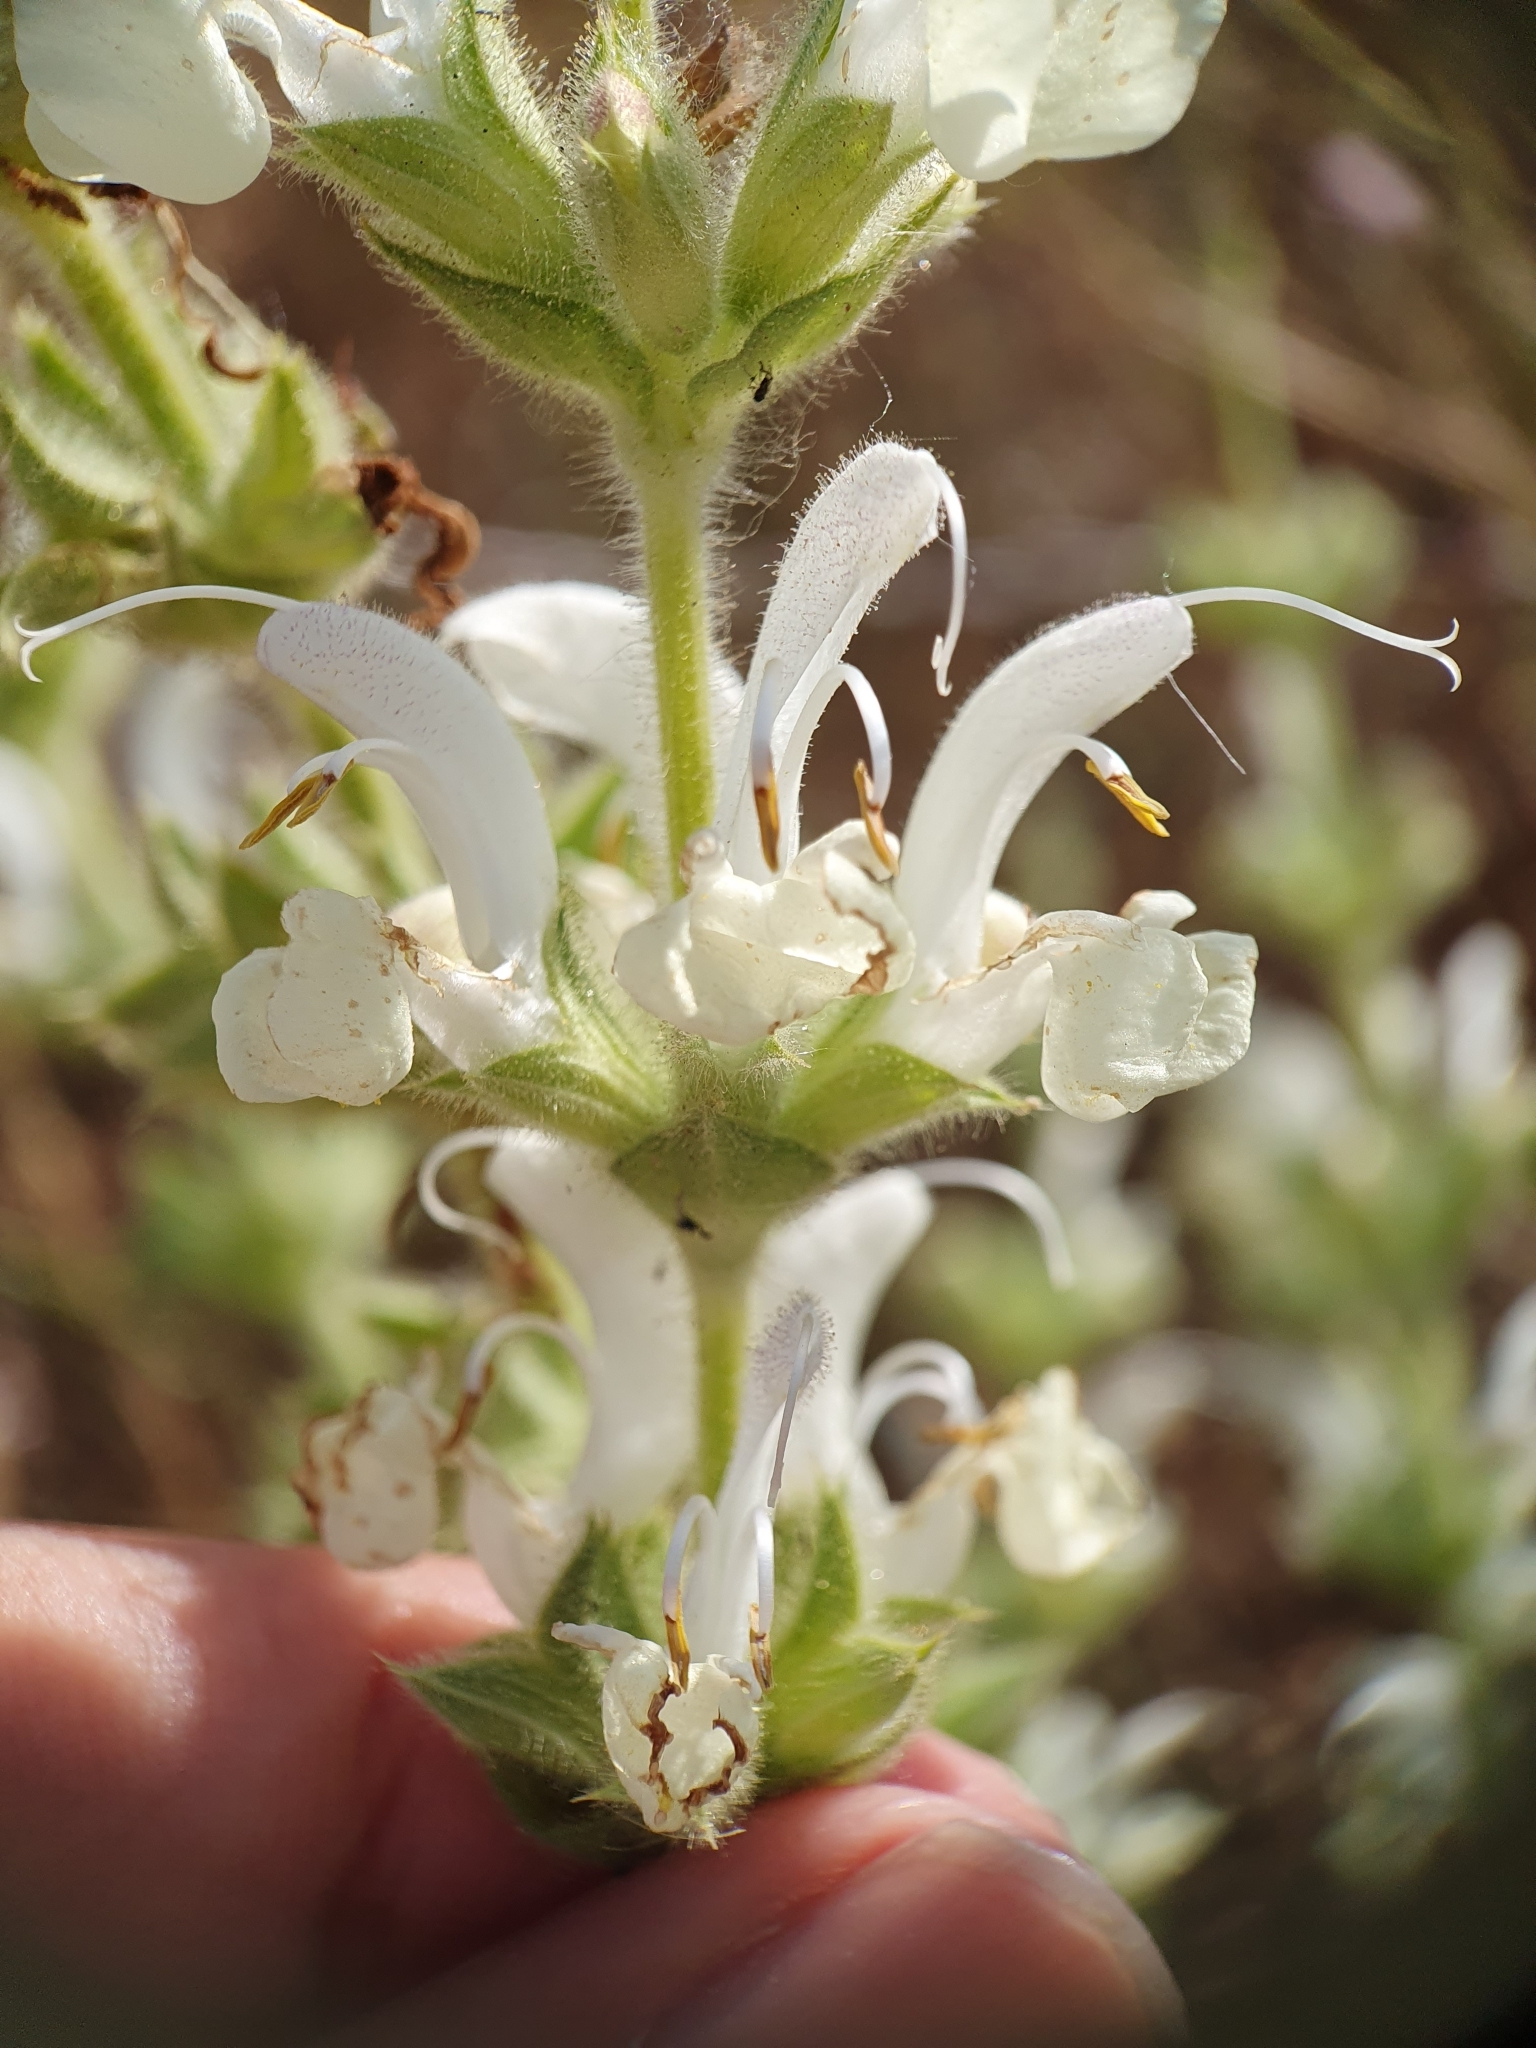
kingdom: Plantae
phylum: Tracheophyta
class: Magnoliopsida
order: Lamiales
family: Lamiaceae
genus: Salvia
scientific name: Salvia argentea
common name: Silver sage
